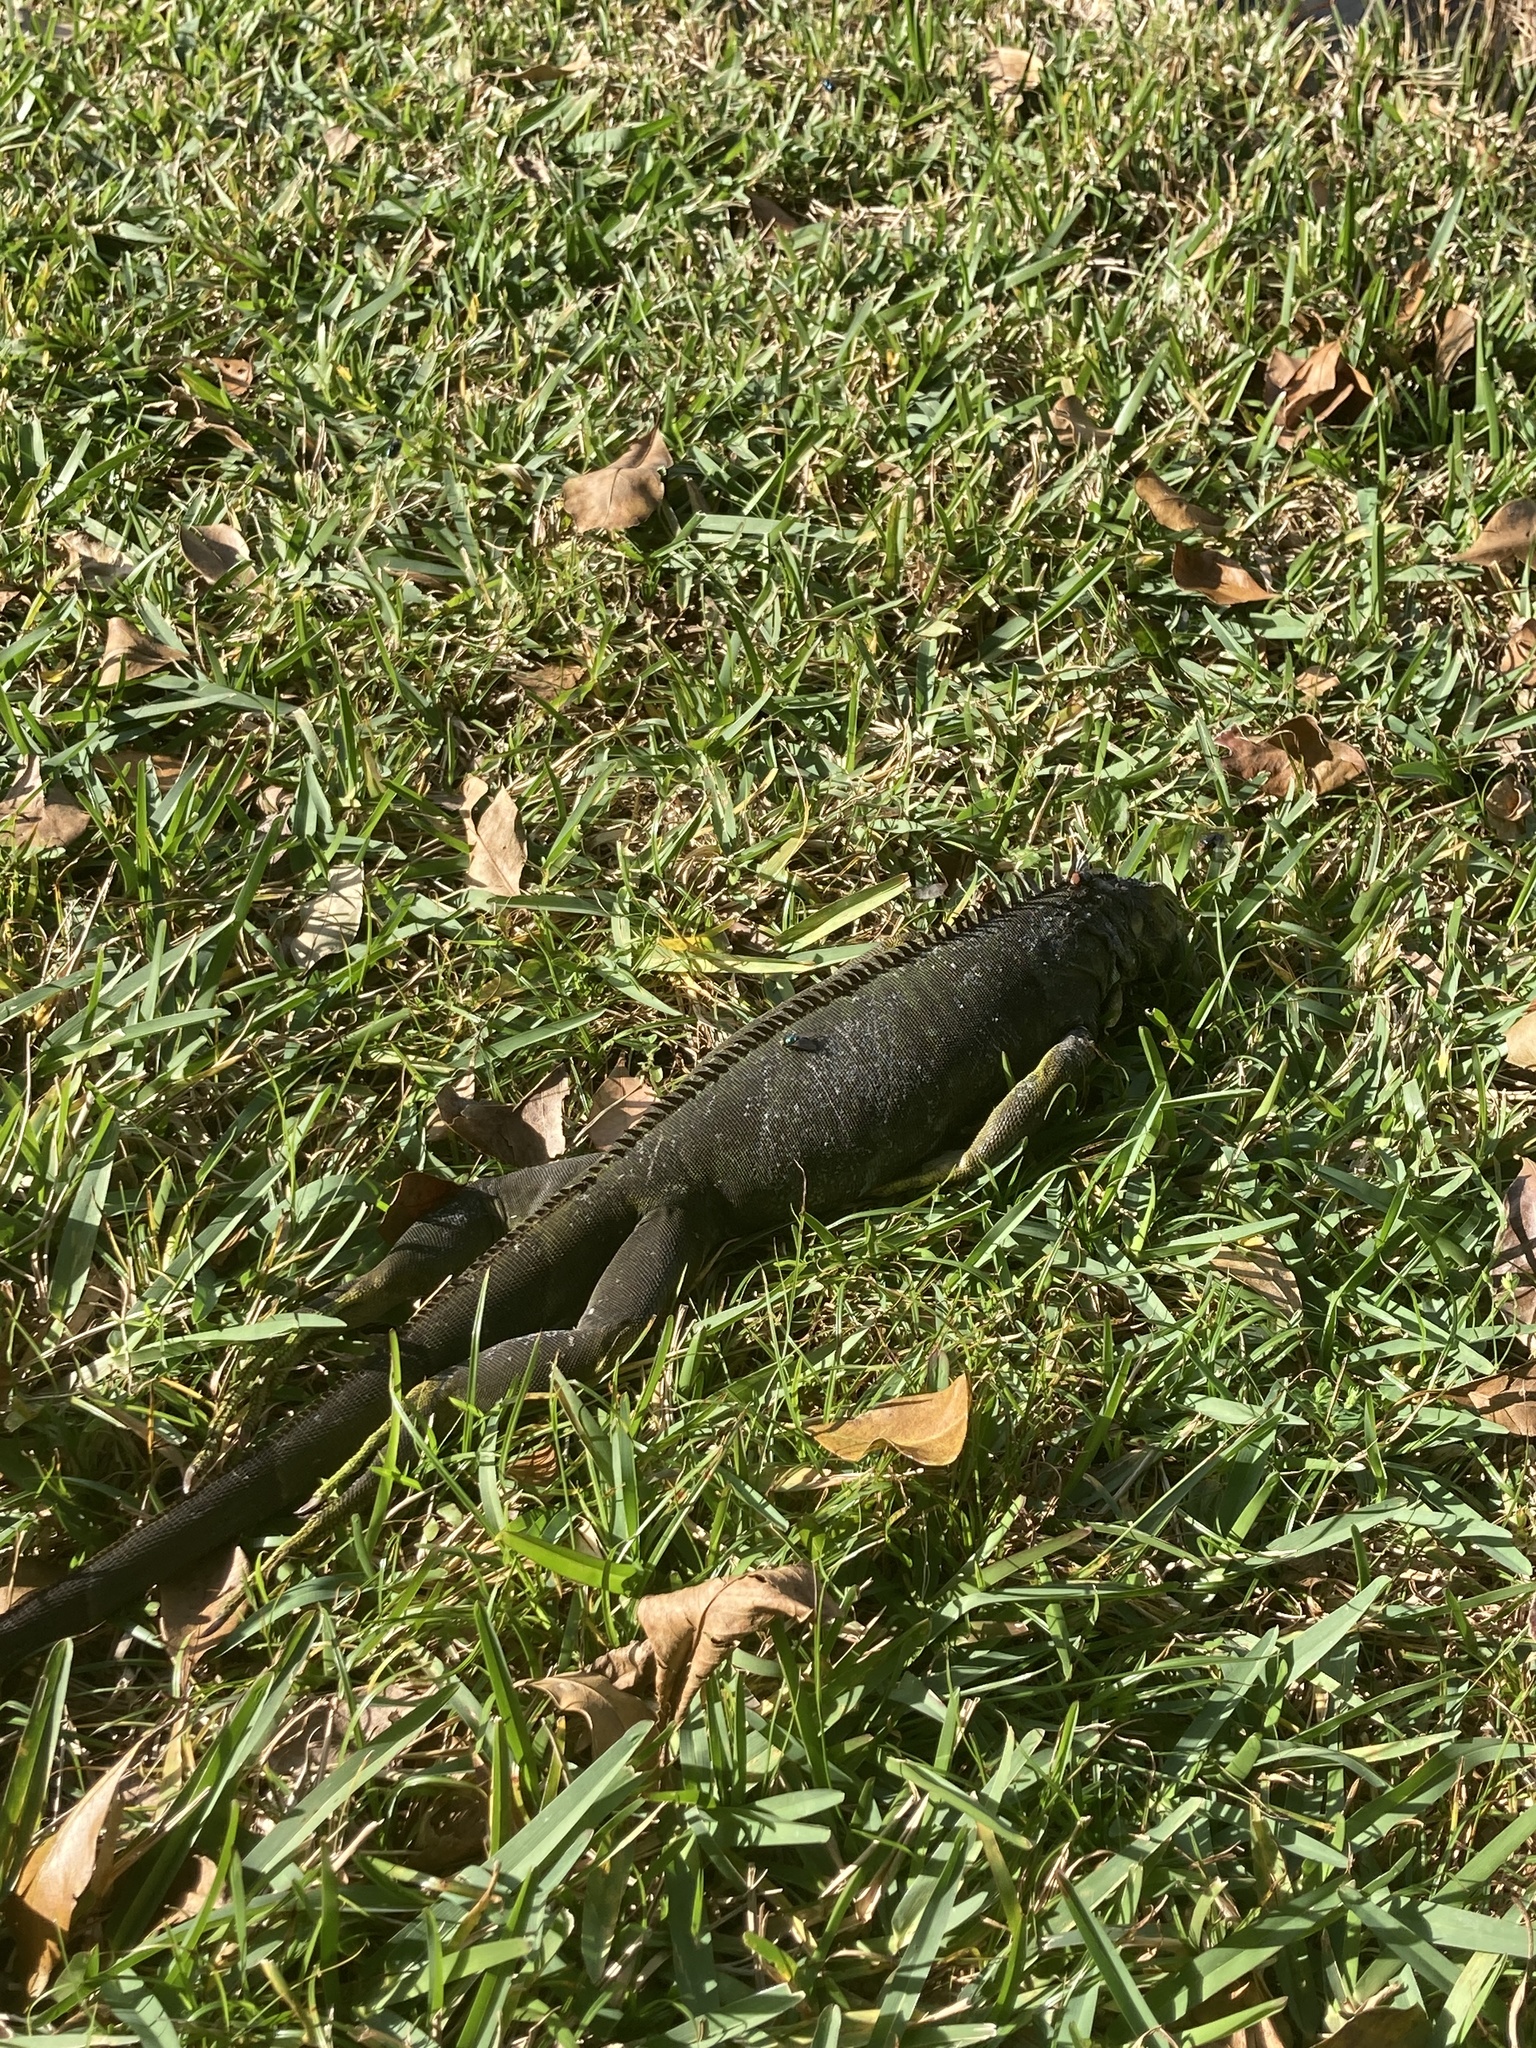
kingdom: Animalia
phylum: Chordata
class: Squamata
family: Iguanidae
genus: Iguana
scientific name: Iguana iguana
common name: Green iguana
